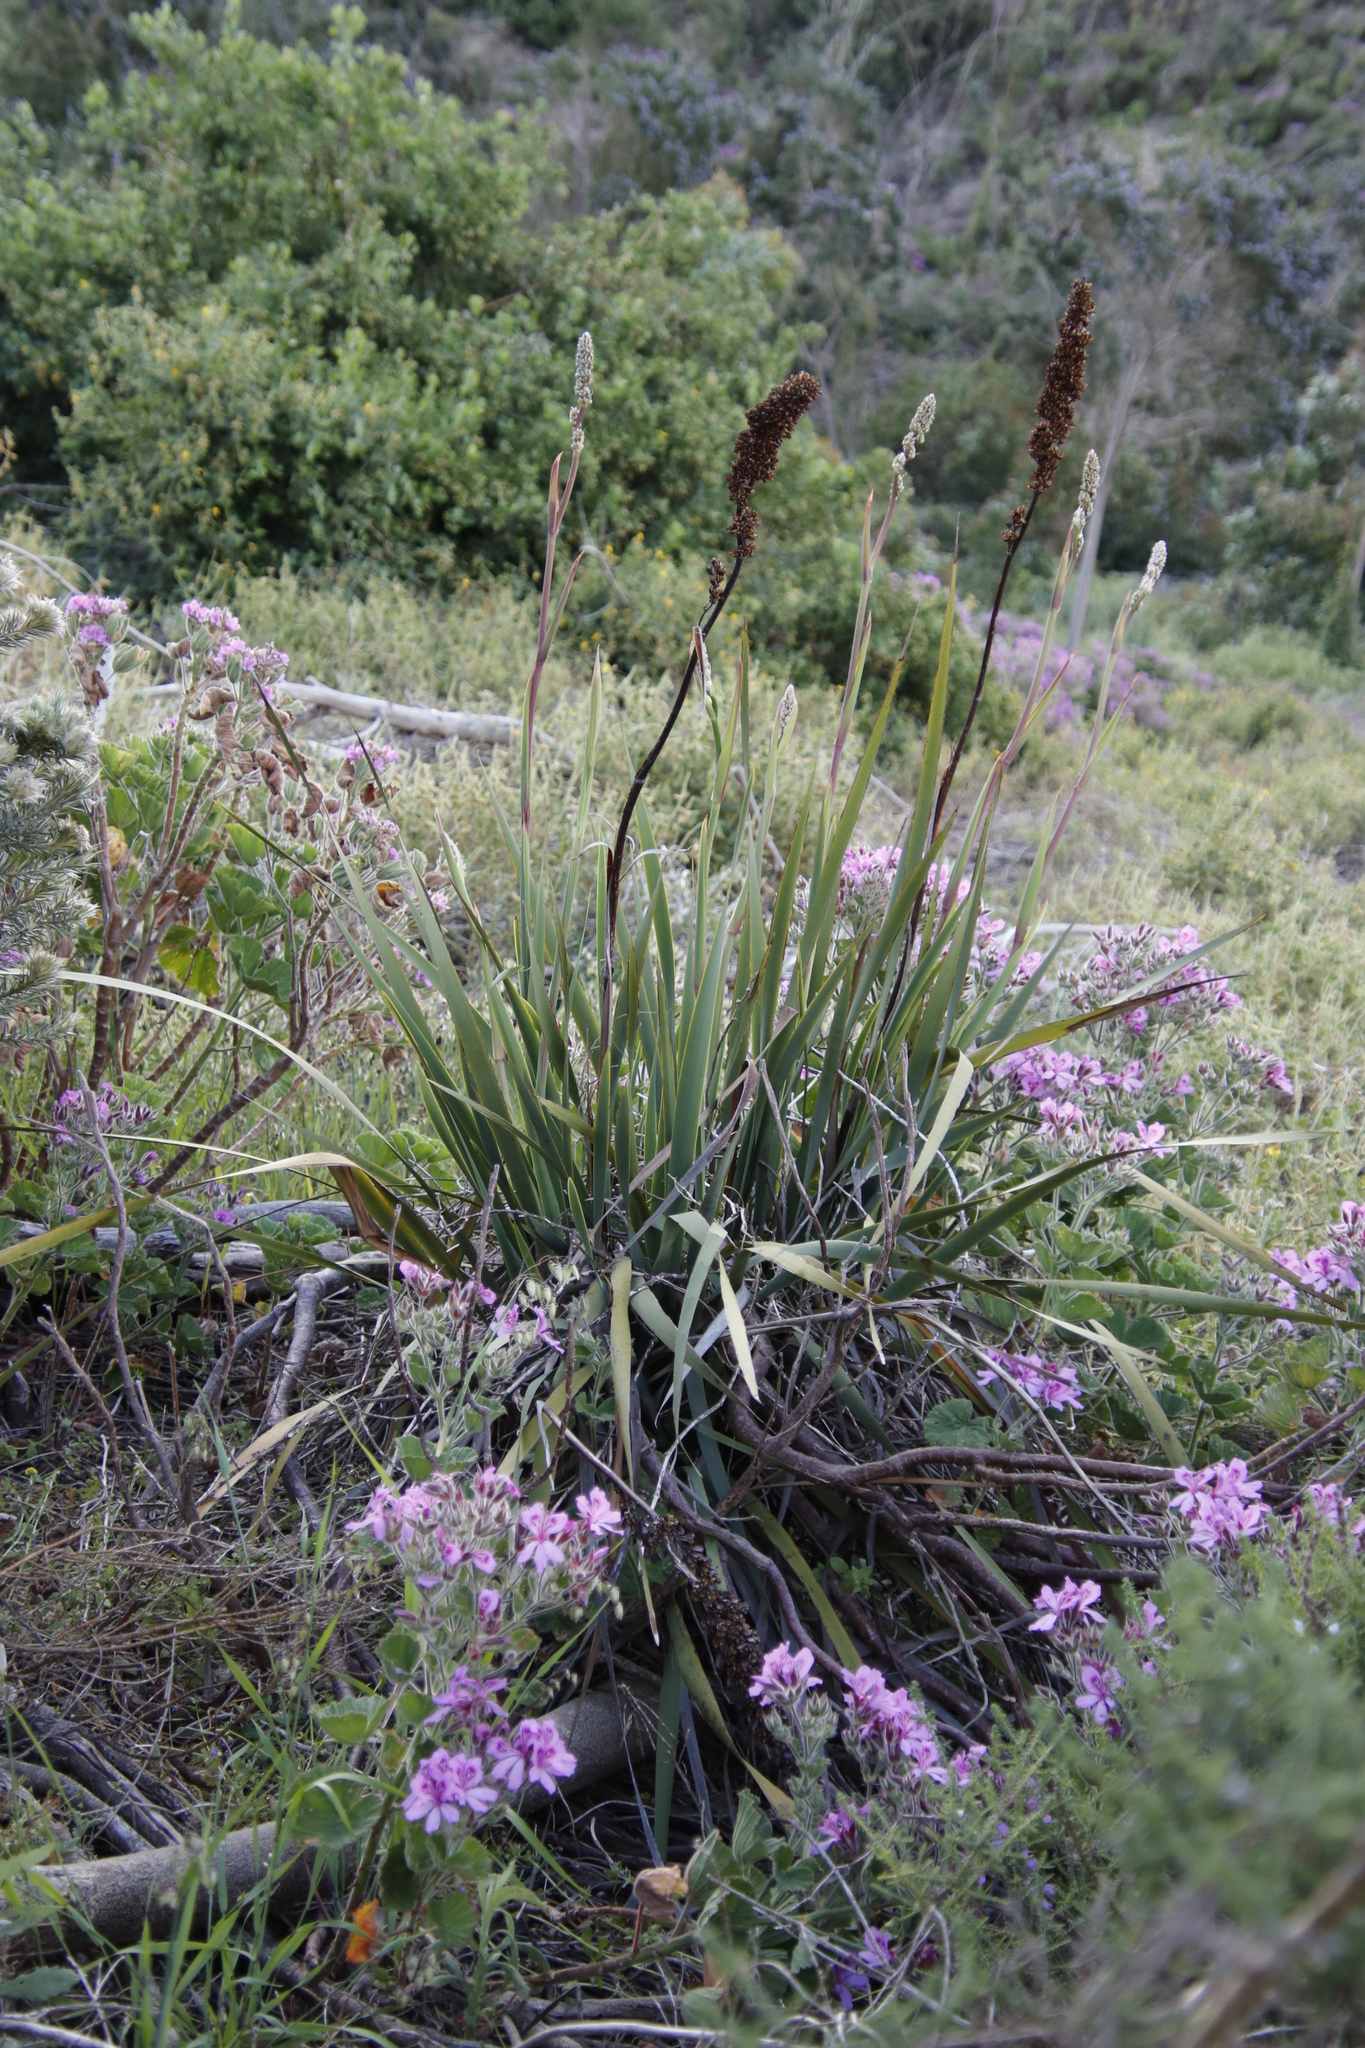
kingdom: Plantae
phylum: Tracheophyta
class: Liliopsida
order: Asparagales
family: Iridaceae
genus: Aristea
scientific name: Aristea capitata
